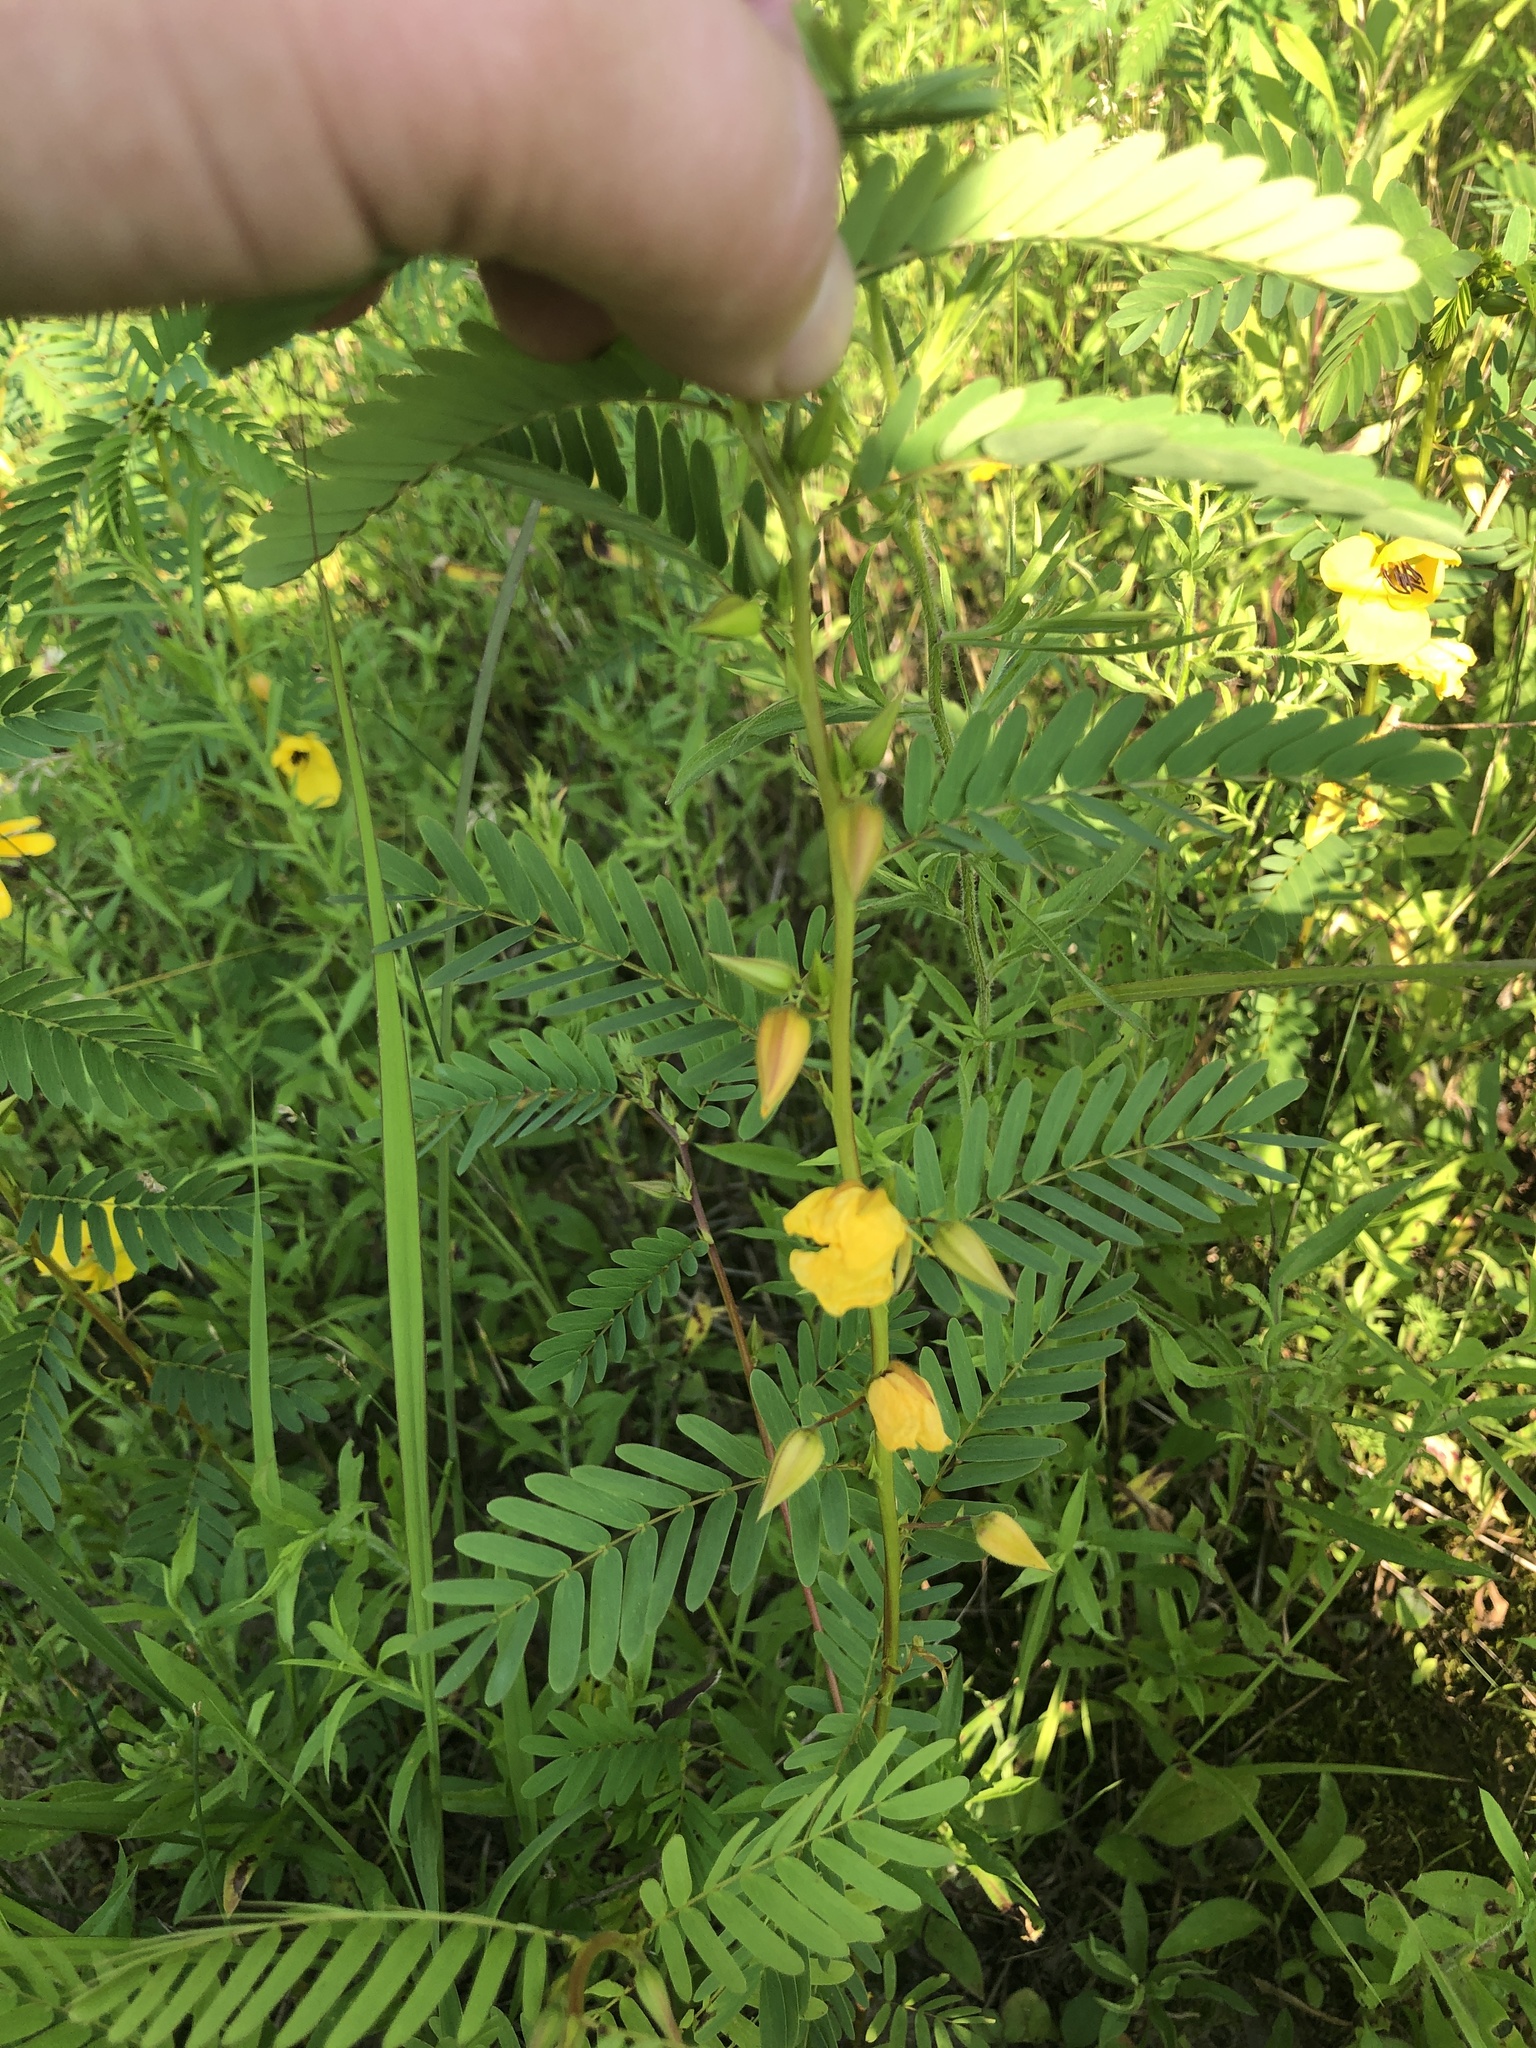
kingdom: Plantae
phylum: Tracheophyta
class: Magnoliopsida
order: Fabales
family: Fabaceae
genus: Chamaecrista
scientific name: Chamaecrista fasciculata
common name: Golden cassia
